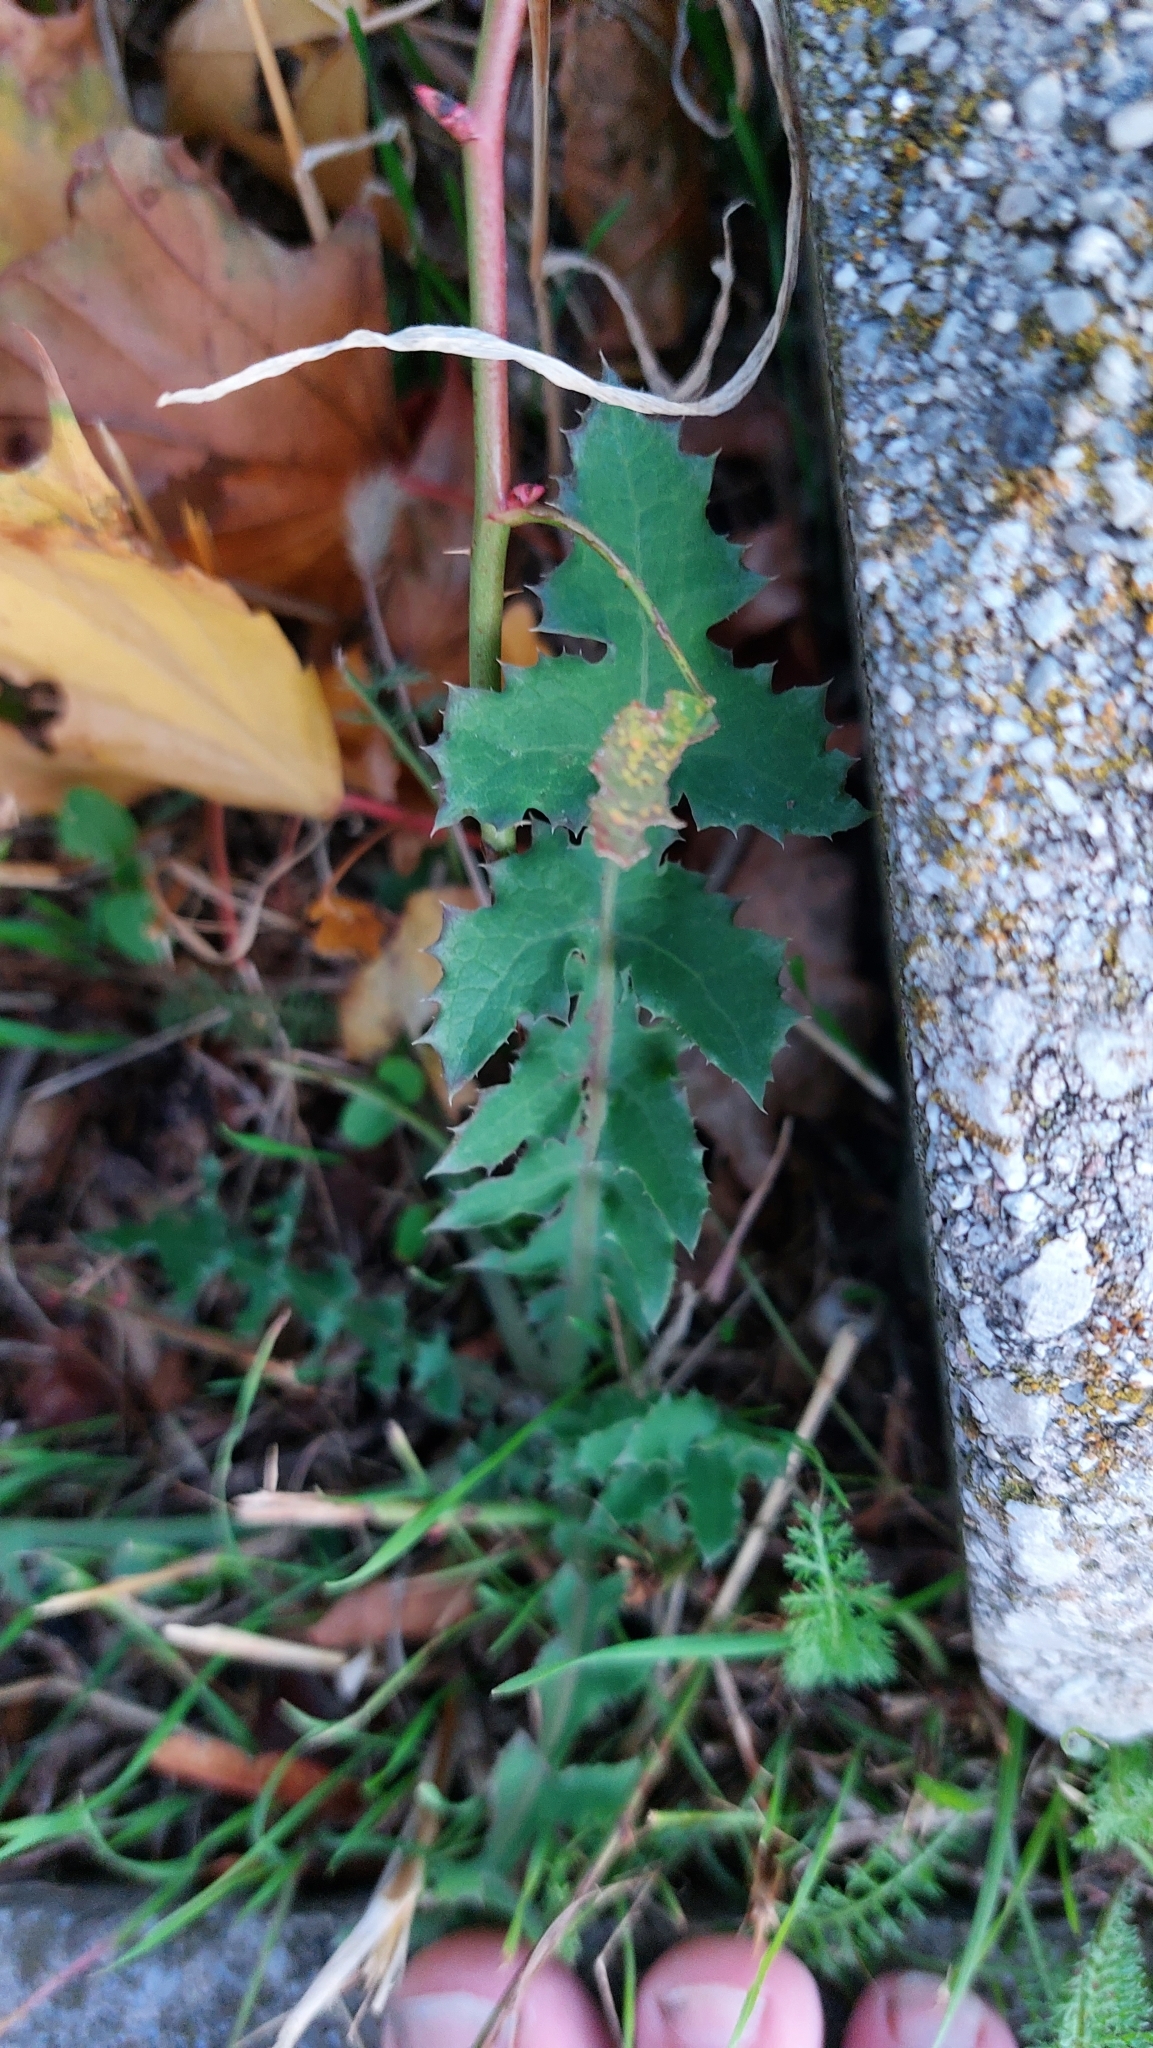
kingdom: Plantae
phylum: Tracheophyta
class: Magnoliopsida
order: Asterales
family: Asteraceae
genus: Sonchus
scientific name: Sonchus oleraceus
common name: Common sowthistle
